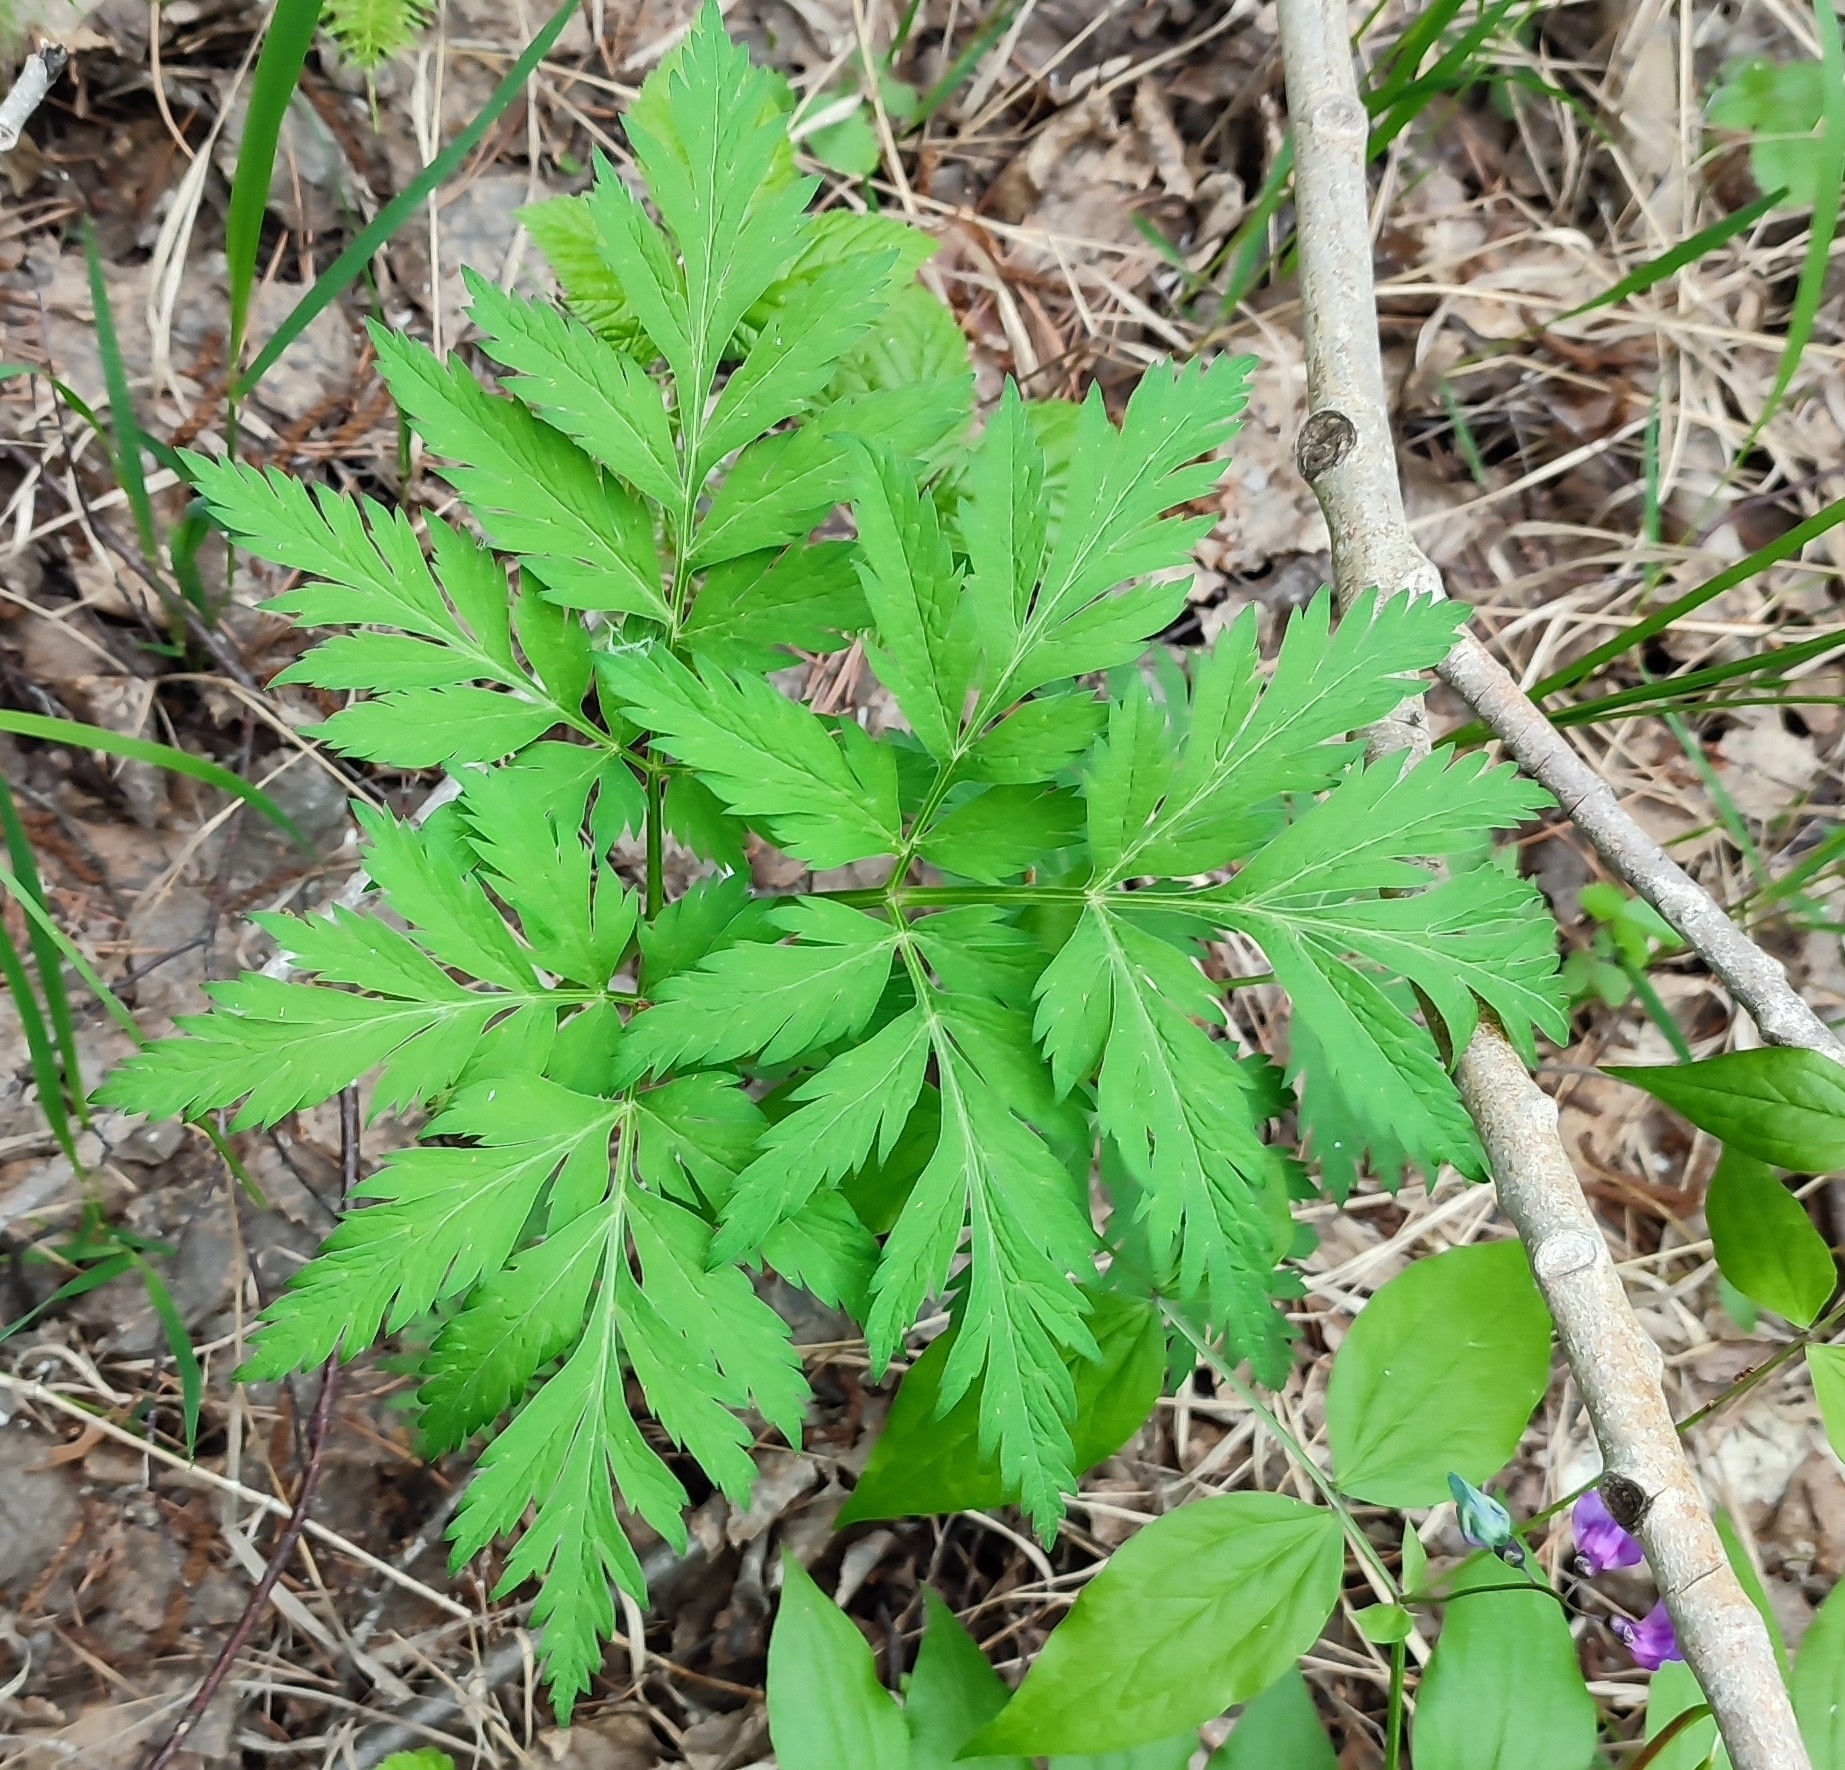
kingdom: Plantae
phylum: Tracheophyta
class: Magnoliopsida
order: Apiales
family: Apiaceae
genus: Pleurospermum
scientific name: Pleurospermum uralense
